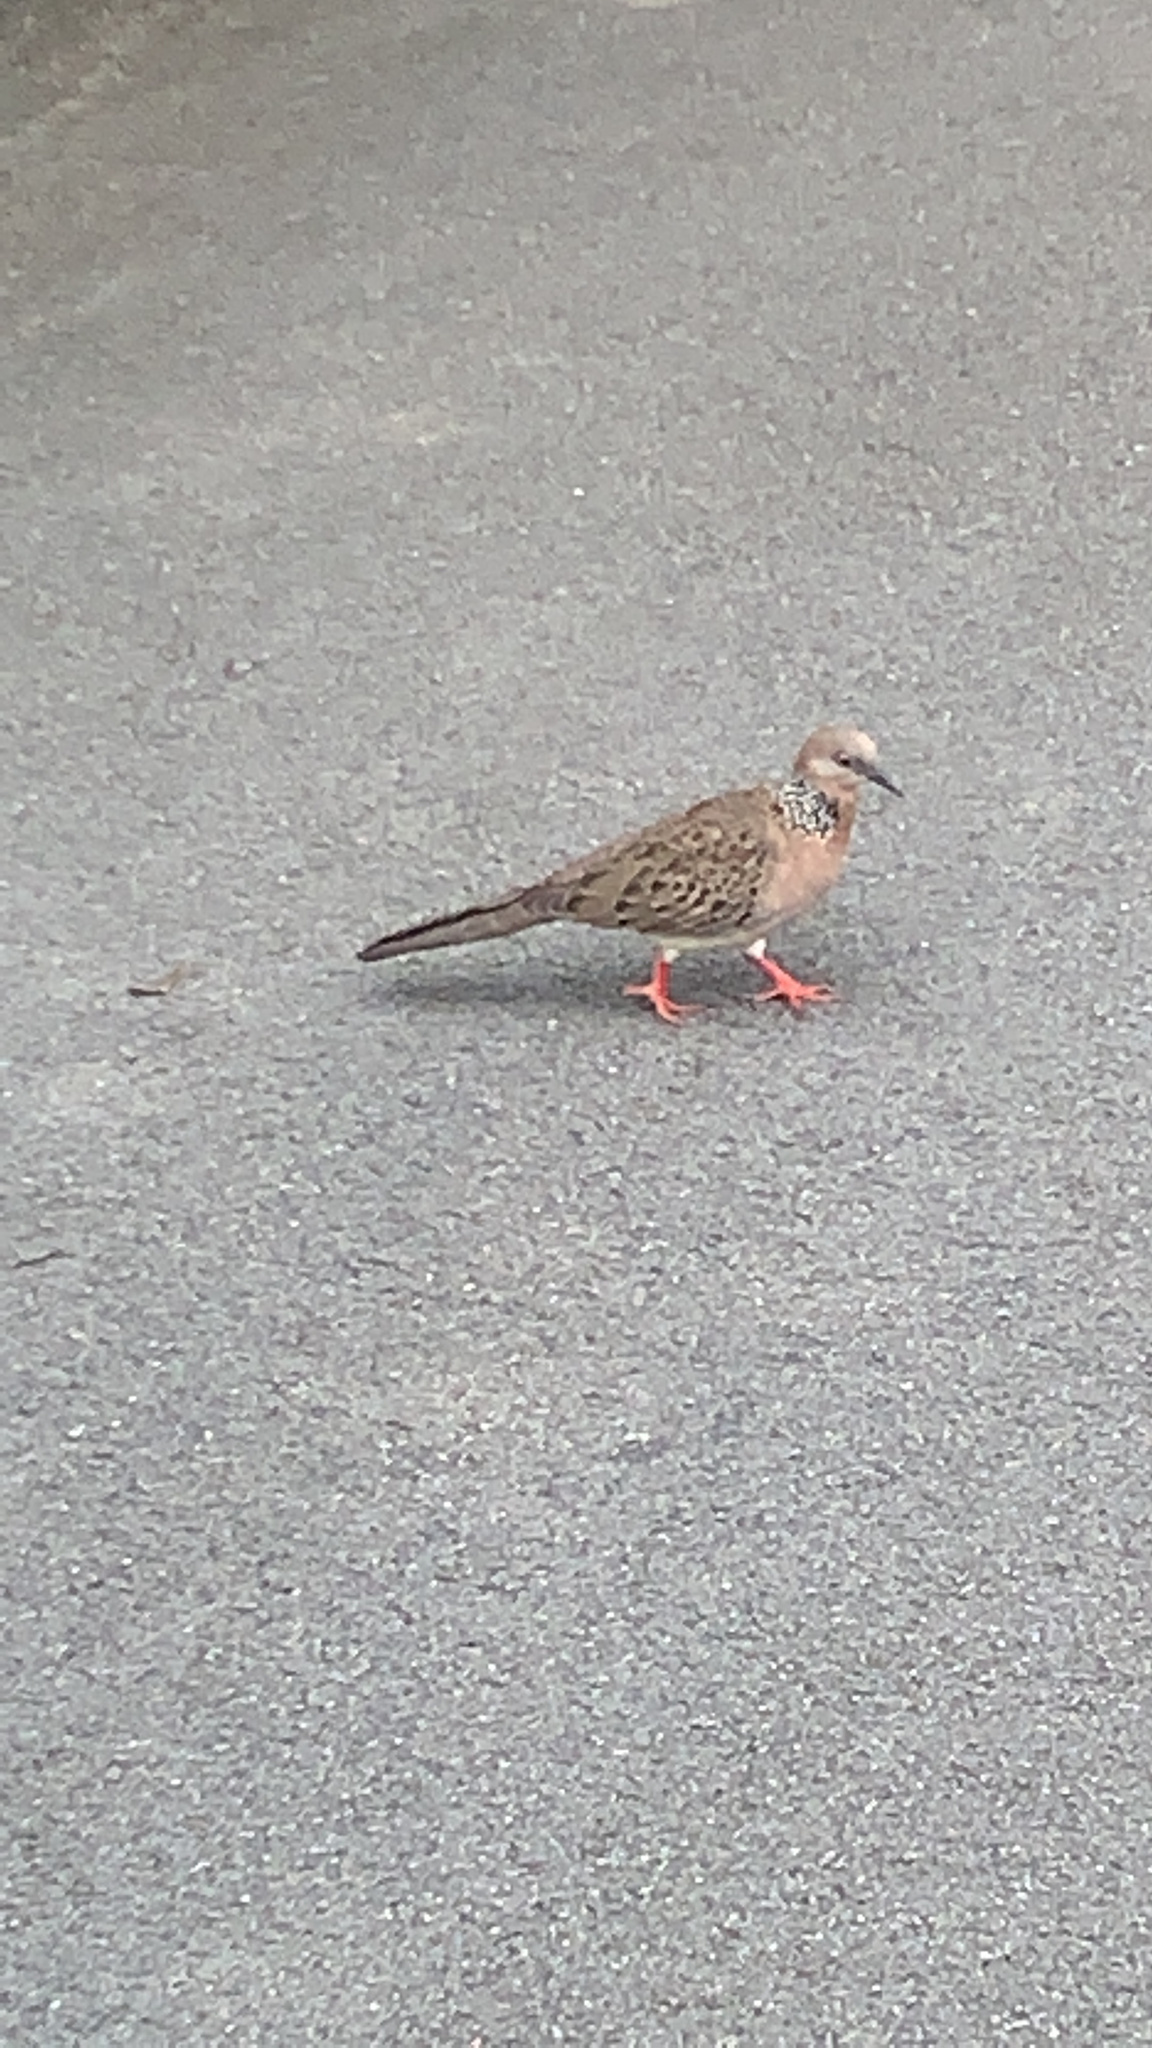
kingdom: Animalia
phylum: Chordata
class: Aves
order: Columbiformes
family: Columbidae
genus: Spilopelia
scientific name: Spilopelia chinensis
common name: Spotted dove
